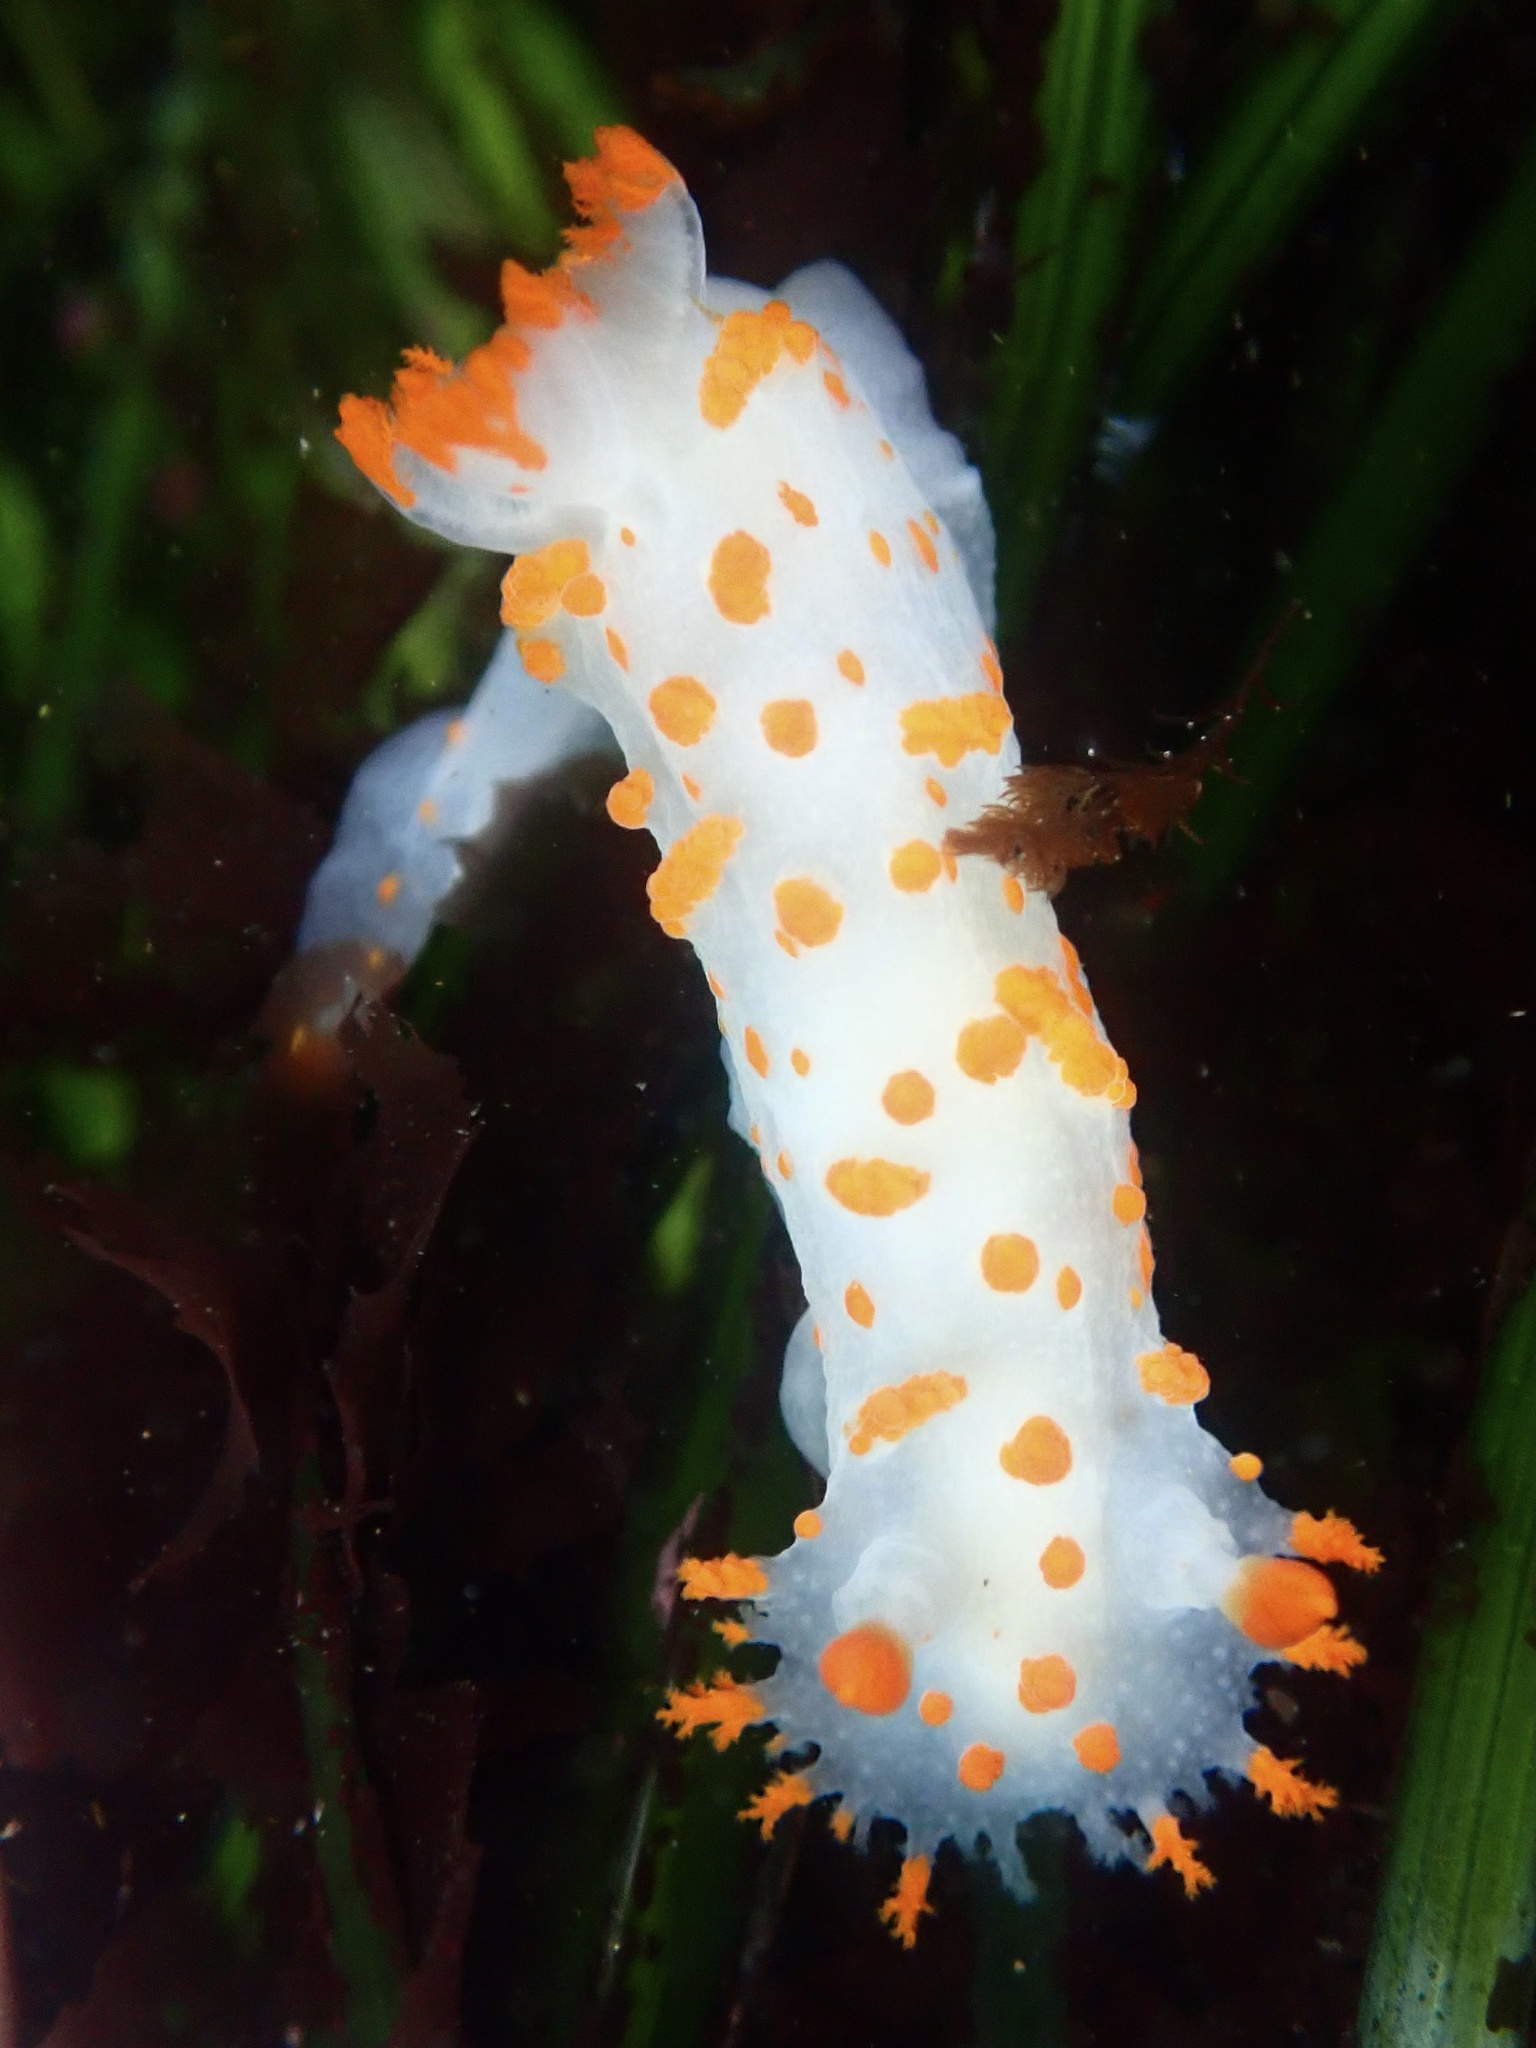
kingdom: Animalia
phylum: Mollusca
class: Gastropoda
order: Nudibranchia
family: Polyceridae
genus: Triopha
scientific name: Triopha catalinae
